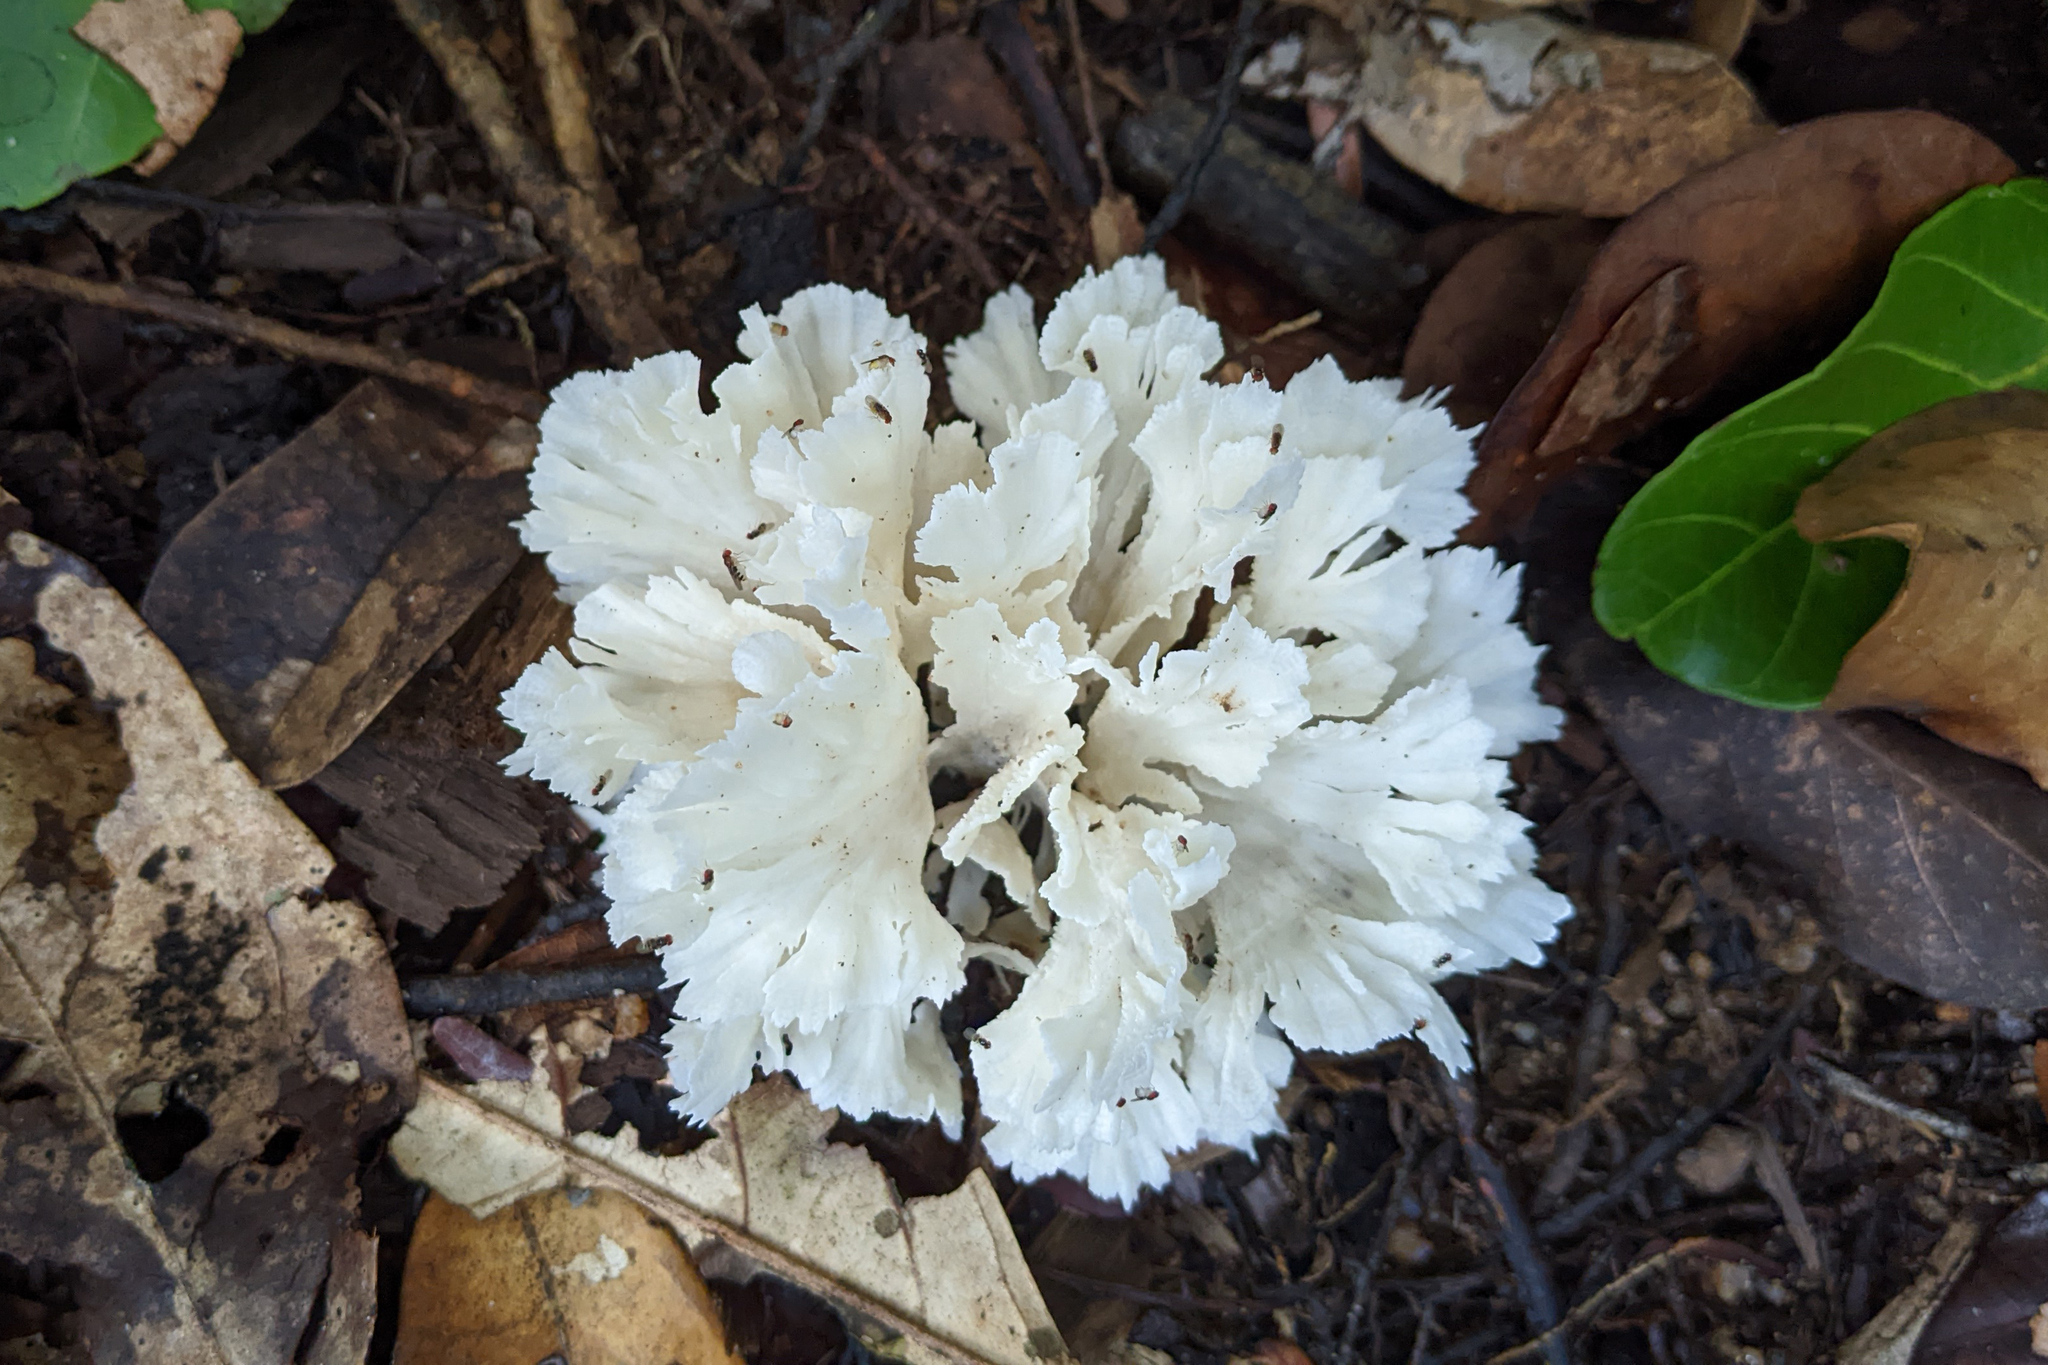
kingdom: Fungi
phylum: Basidiomycota
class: Agaricomycetes
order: Polyporales
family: Irpicaceae
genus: Irpex
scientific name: Irpex rosettiformis
